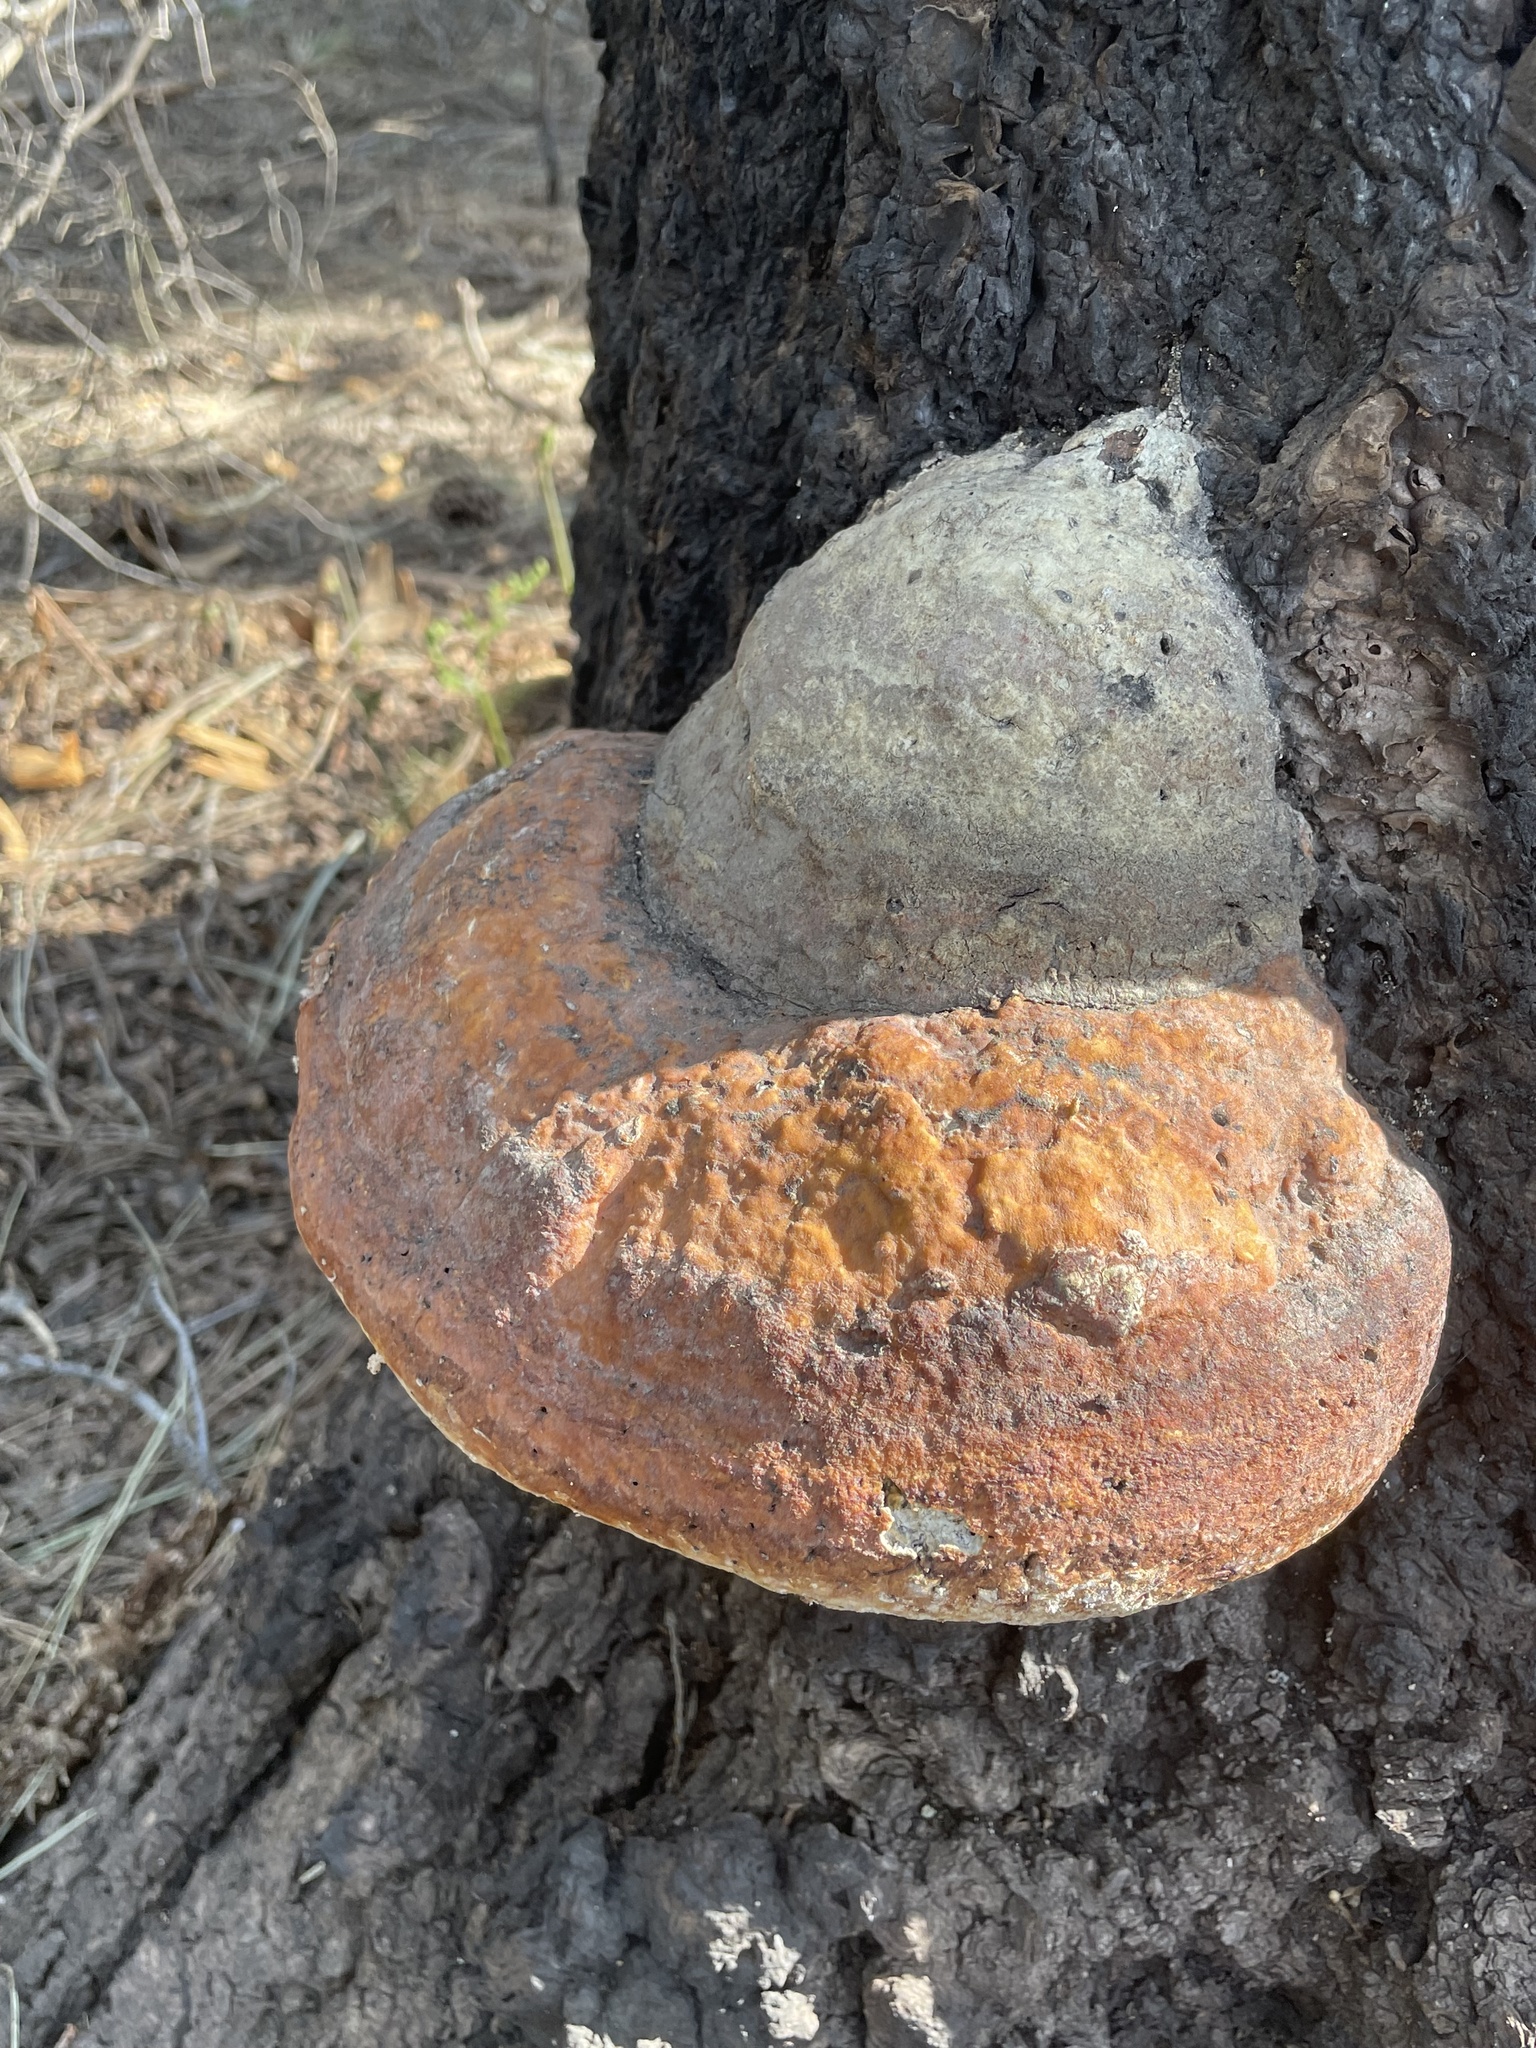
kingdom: Fungi
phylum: Basidiomycota
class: Agaricomycetes
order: Polyporales
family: Fomitopsidaceae
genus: Fomitopsis
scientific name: Fomitopsis schrenkii
